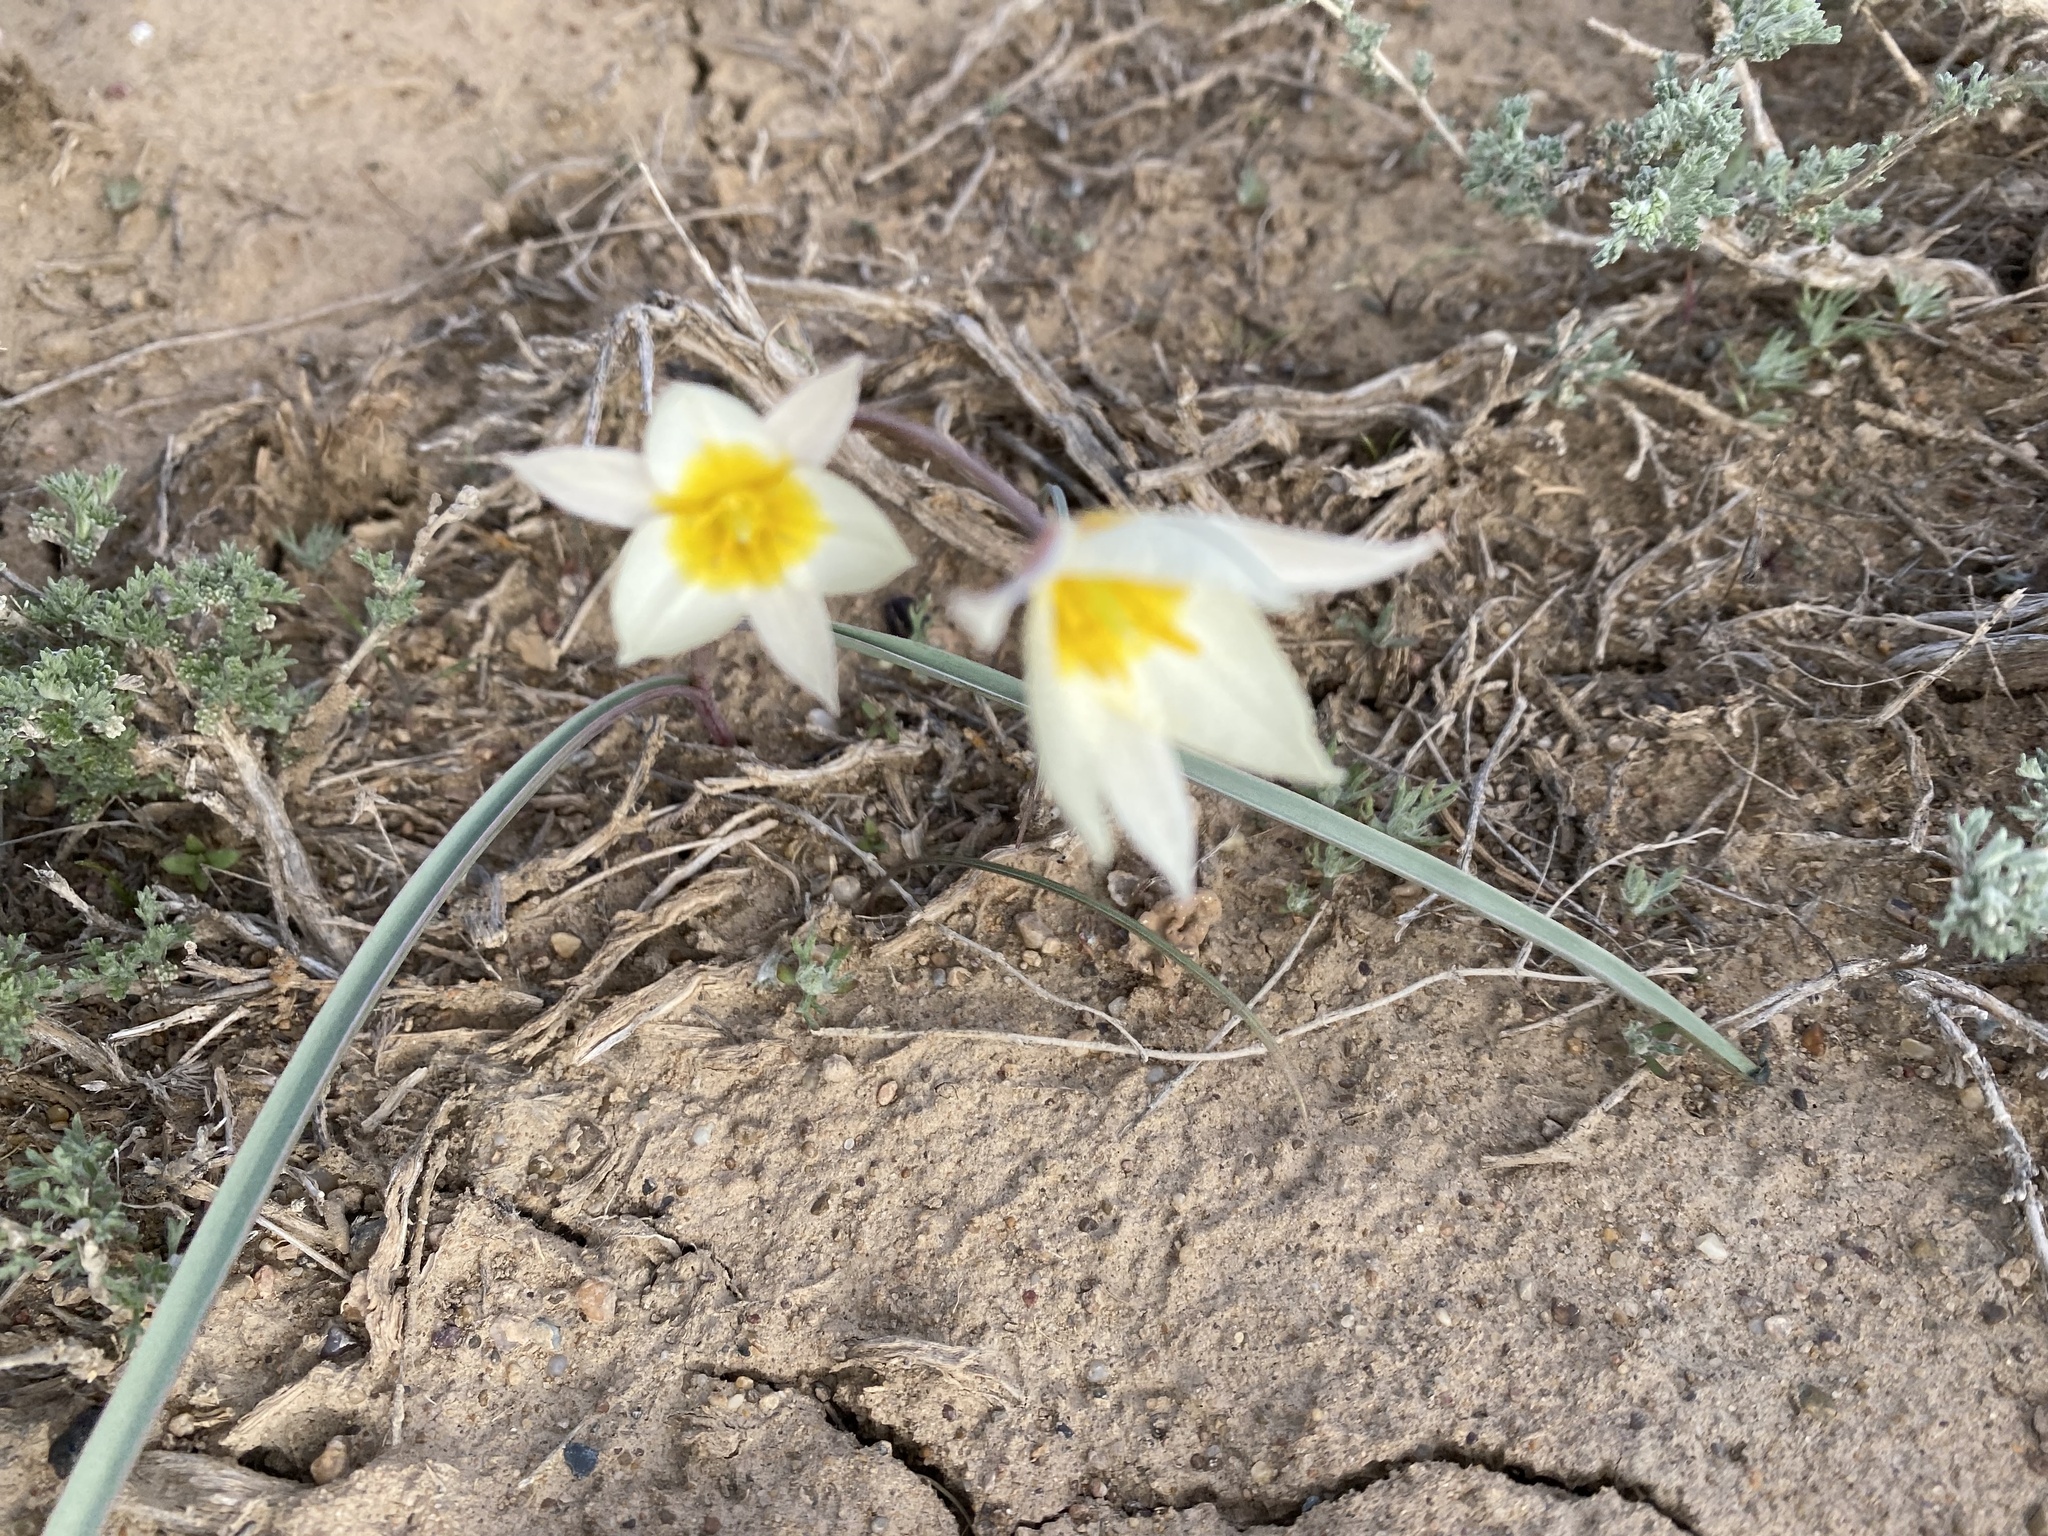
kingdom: Plantae
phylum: Tracheophyta
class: Liliopsida
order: Liliales
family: Liliaceae
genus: Tulipa
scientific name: Tulipa biflora
